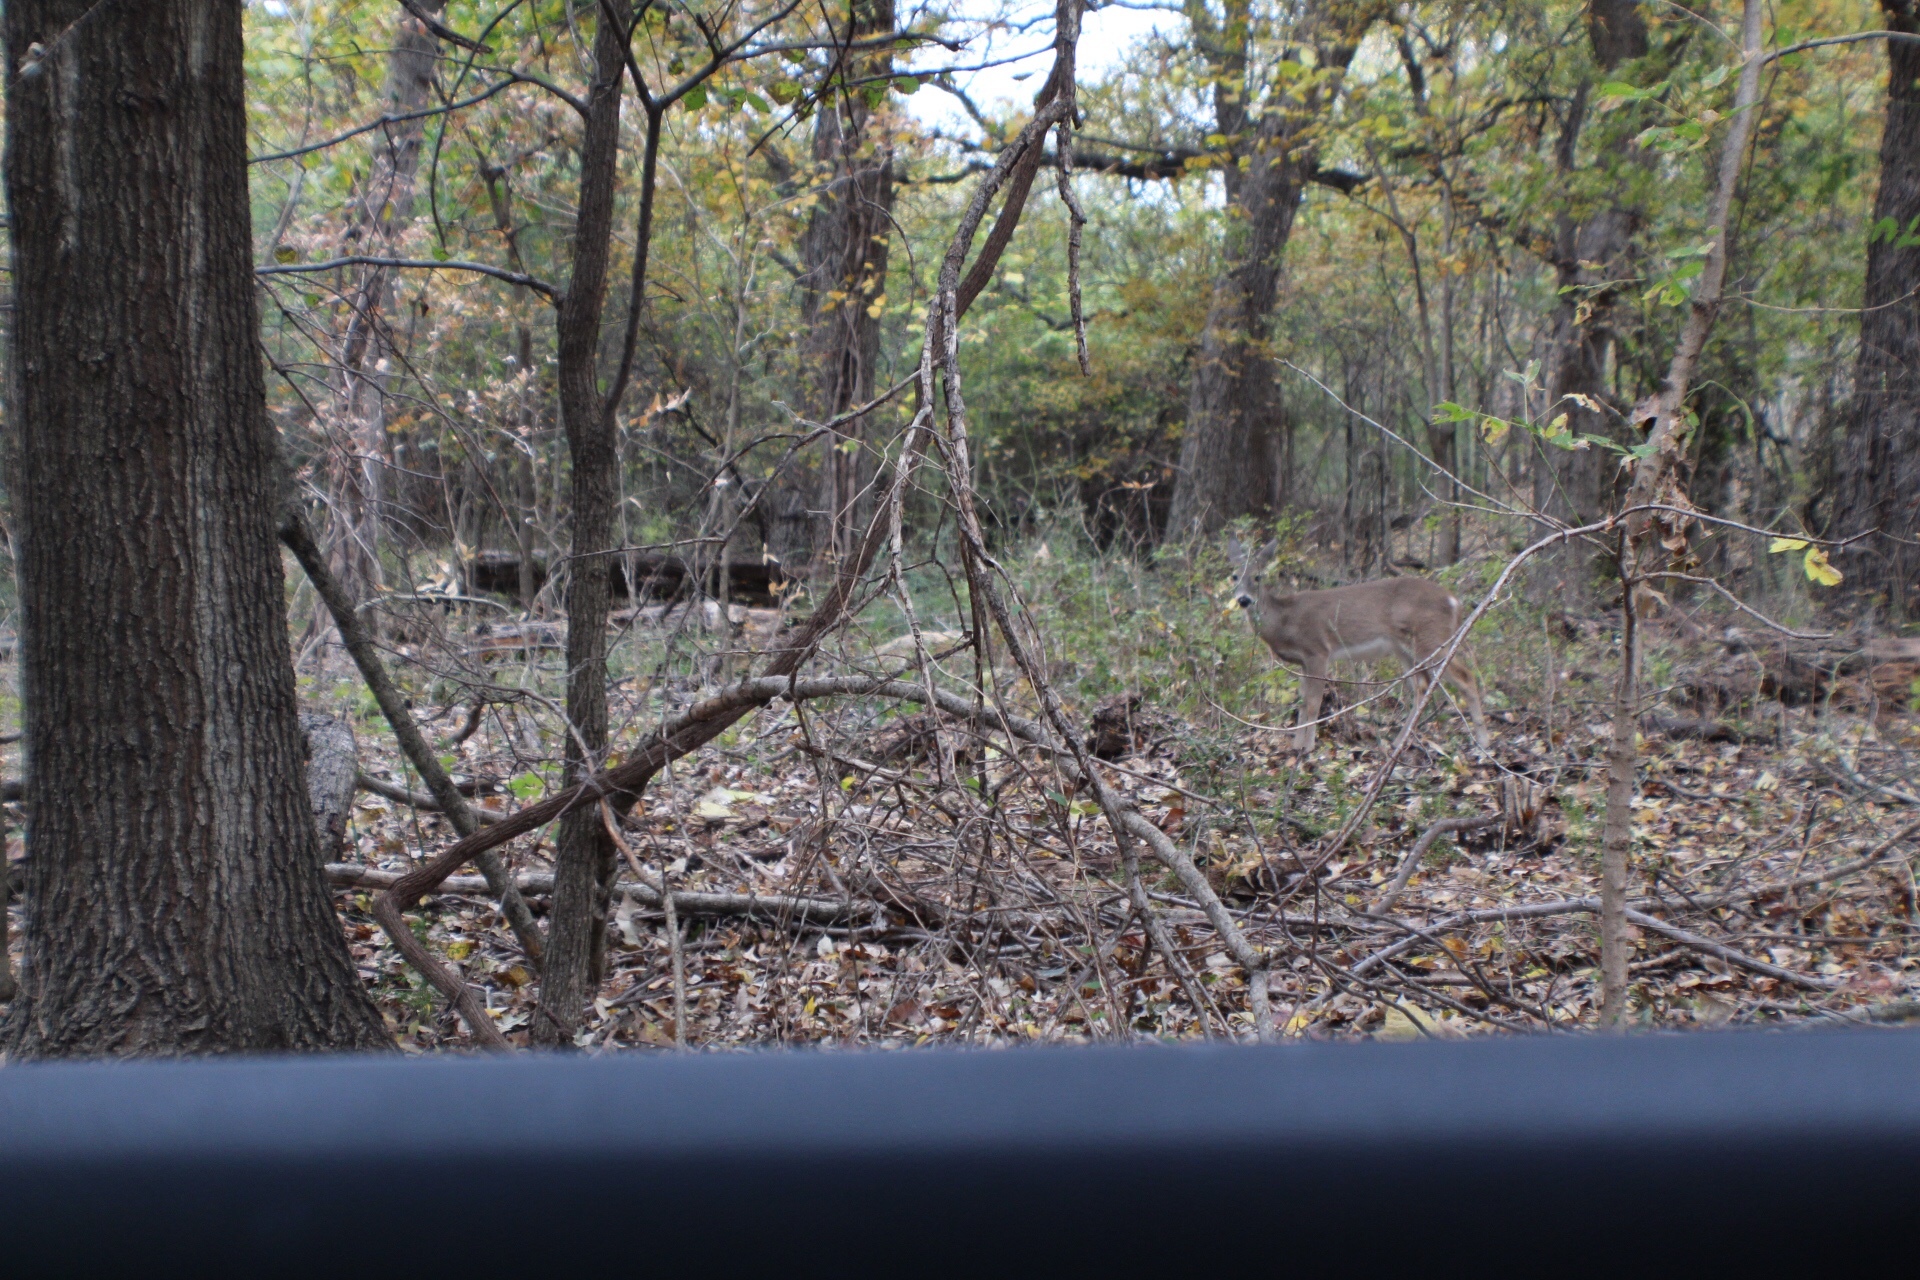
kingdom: Animalia
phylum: Chordata
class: Mammalia
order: Artiodactyla
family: Cervidae
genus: Odocoileus
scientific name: Odocoileus virginianus
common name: White-tailed deer
